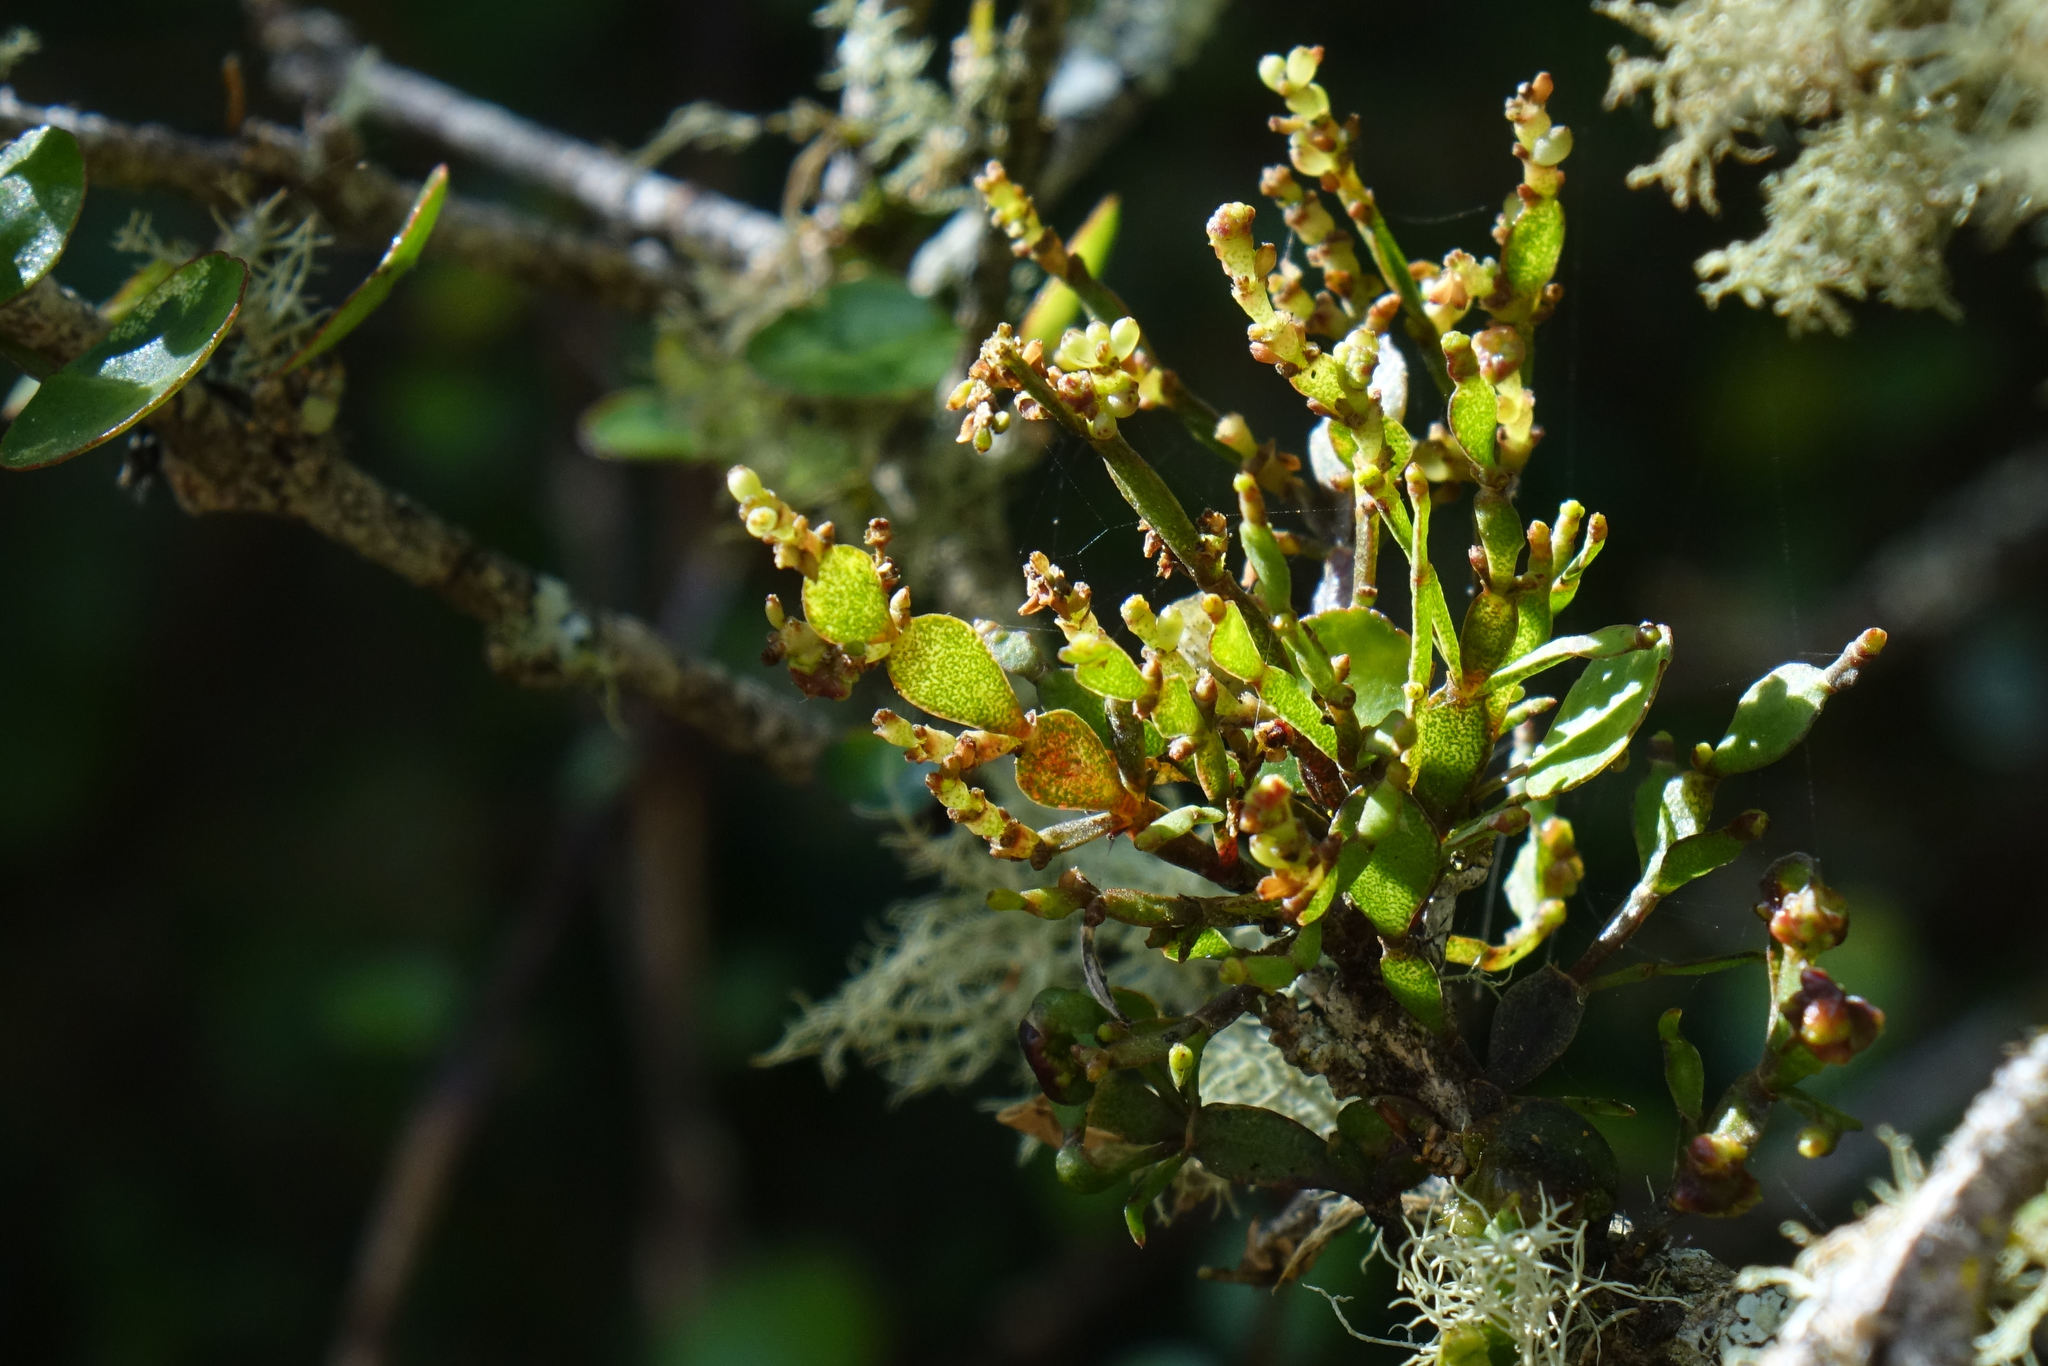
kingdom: Plantae
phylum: Tracheophyta
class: Magnoliopsida
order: Santalales
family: Viscaceae
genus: Korthalsella
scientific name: Korthalsella lindsayi
